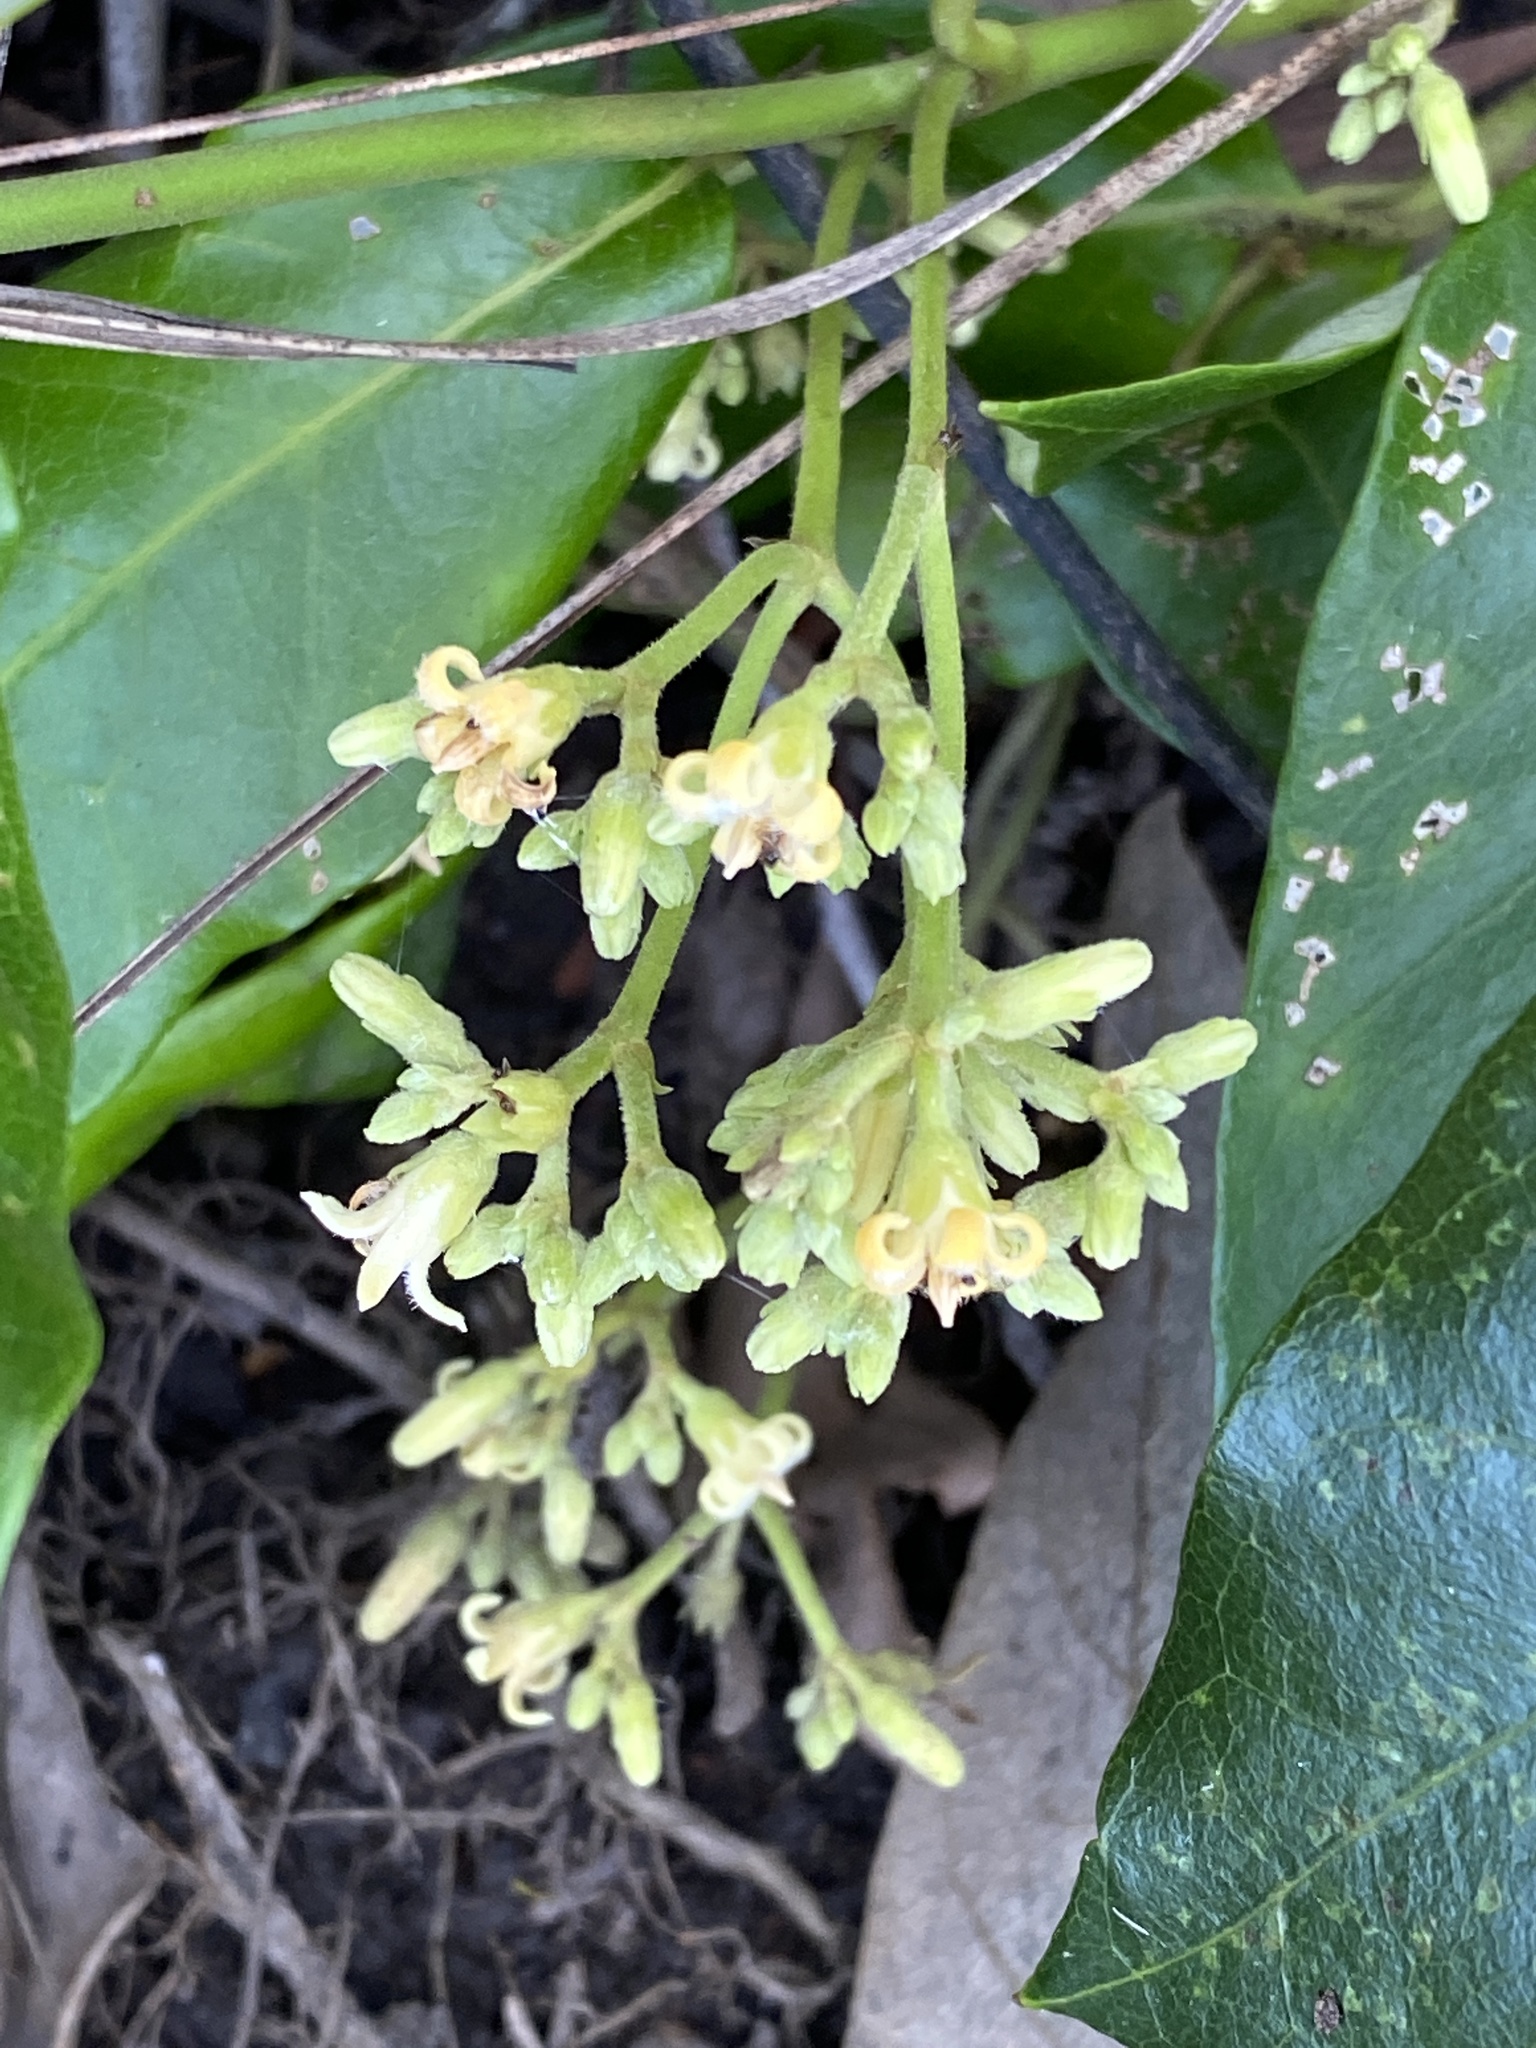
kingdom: Plantae
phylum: Tracheophyta
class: Magnoliopsida
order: Gentianales
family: Apocynaceae
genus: Parsonsia
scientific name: Parsonsia straminea
